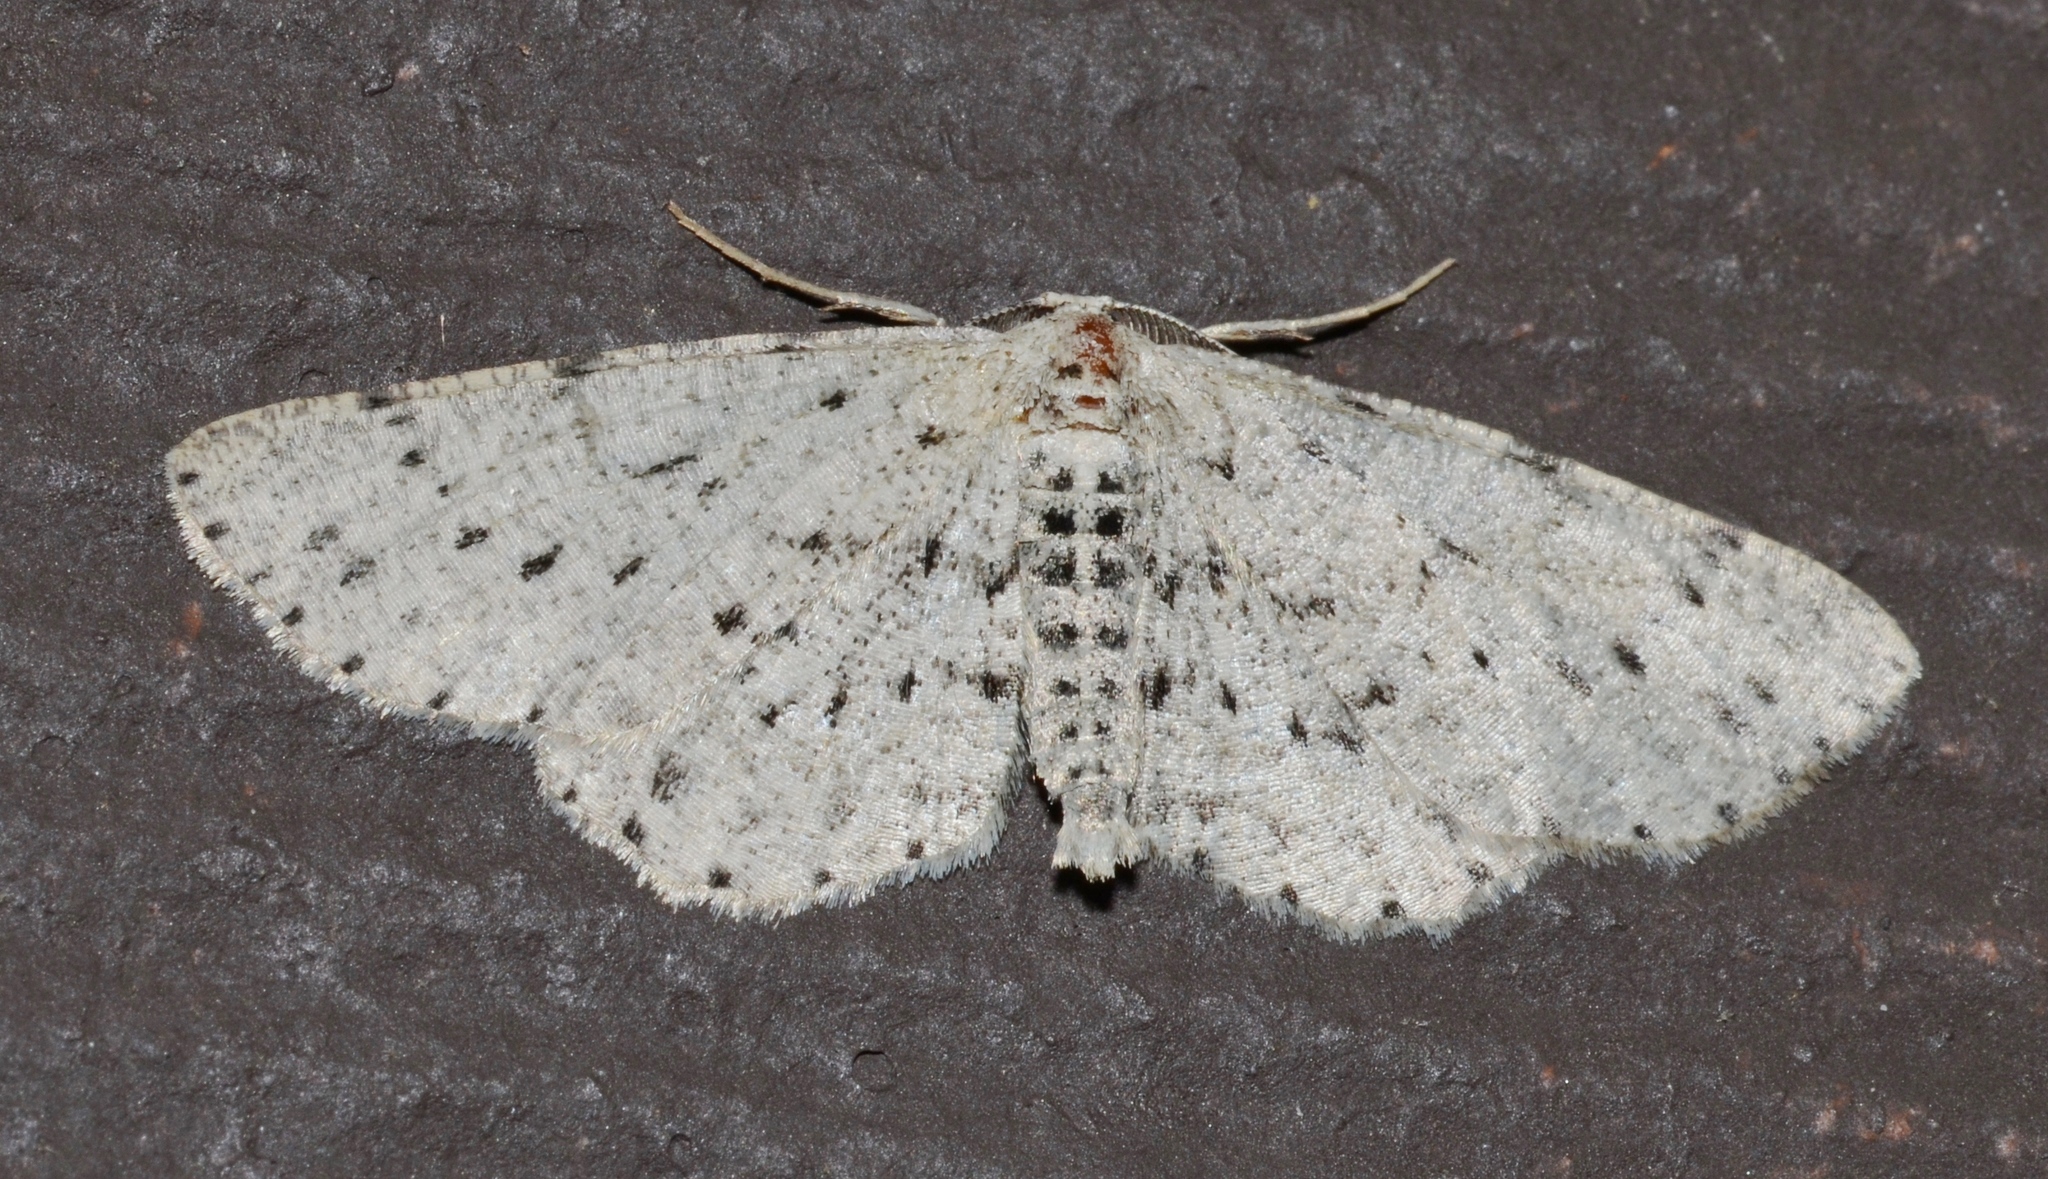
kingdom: Animalia
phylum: Arthropoda
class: Insecta
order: Lepidoptera
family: Geometridae
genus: Glena
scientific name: Glena cribrataria
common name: Dotted gray
